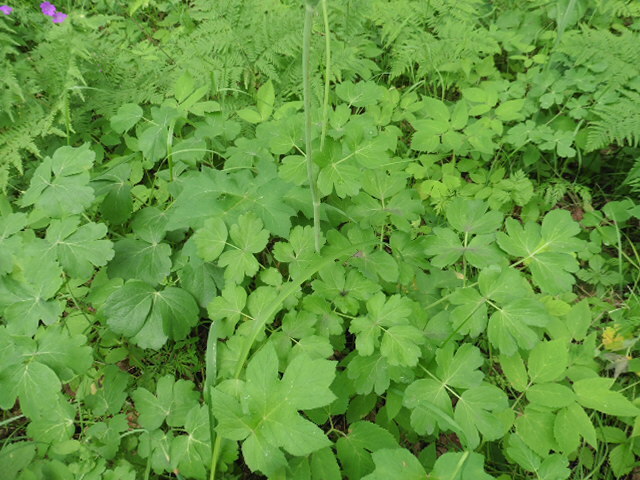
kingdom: Plantae
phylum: Tracheophyta
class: Magnoliopsida
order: Apiales
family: Apiaceae
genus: Laser
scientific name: Laser trilobum
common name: Laser
